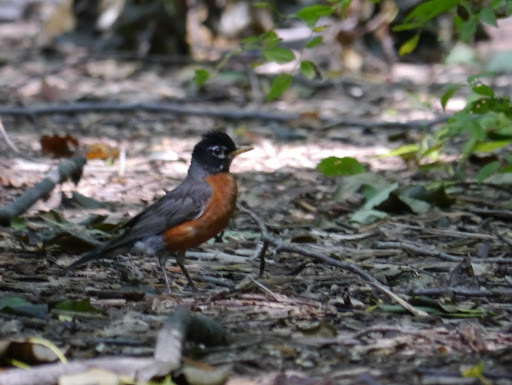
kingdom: Animalia
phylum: Chordata
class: Aves
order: Passeriformes
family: Turdidae
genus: Turdus
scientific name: Turdus migratorius
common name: American robin
